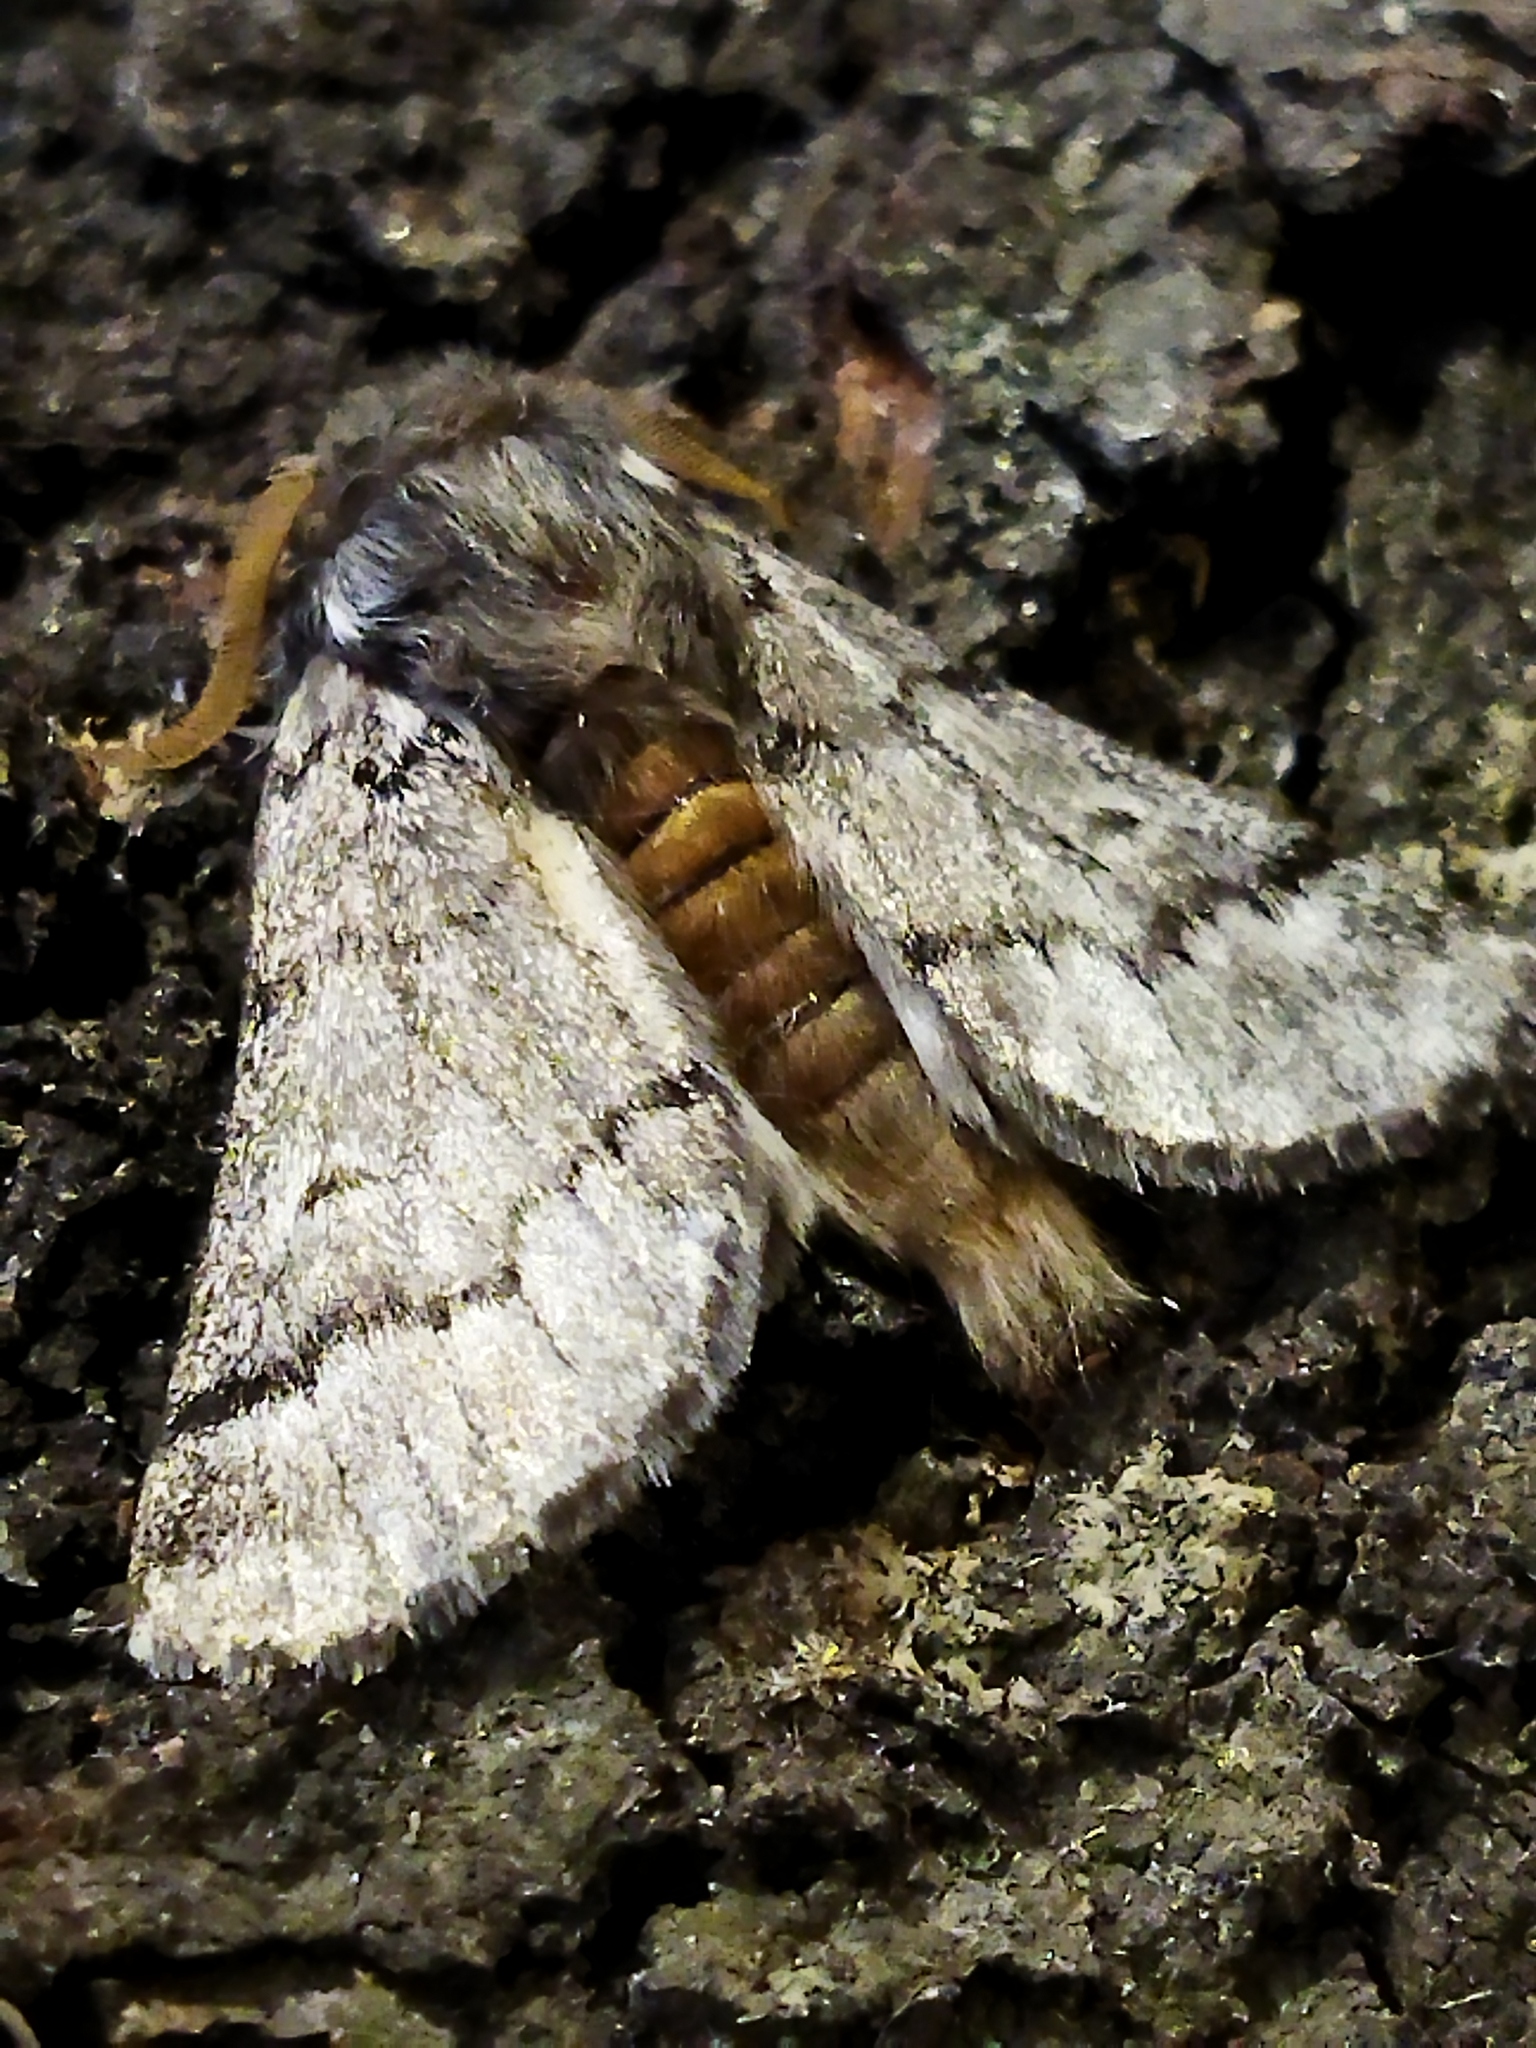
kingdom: Animalia
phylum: Arthropoda
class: Insecta
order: Lepidoptera
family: Notodontidae
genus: Thaumetopoea
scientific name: Thaumetopoea pityocampa
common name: Pine processionary
